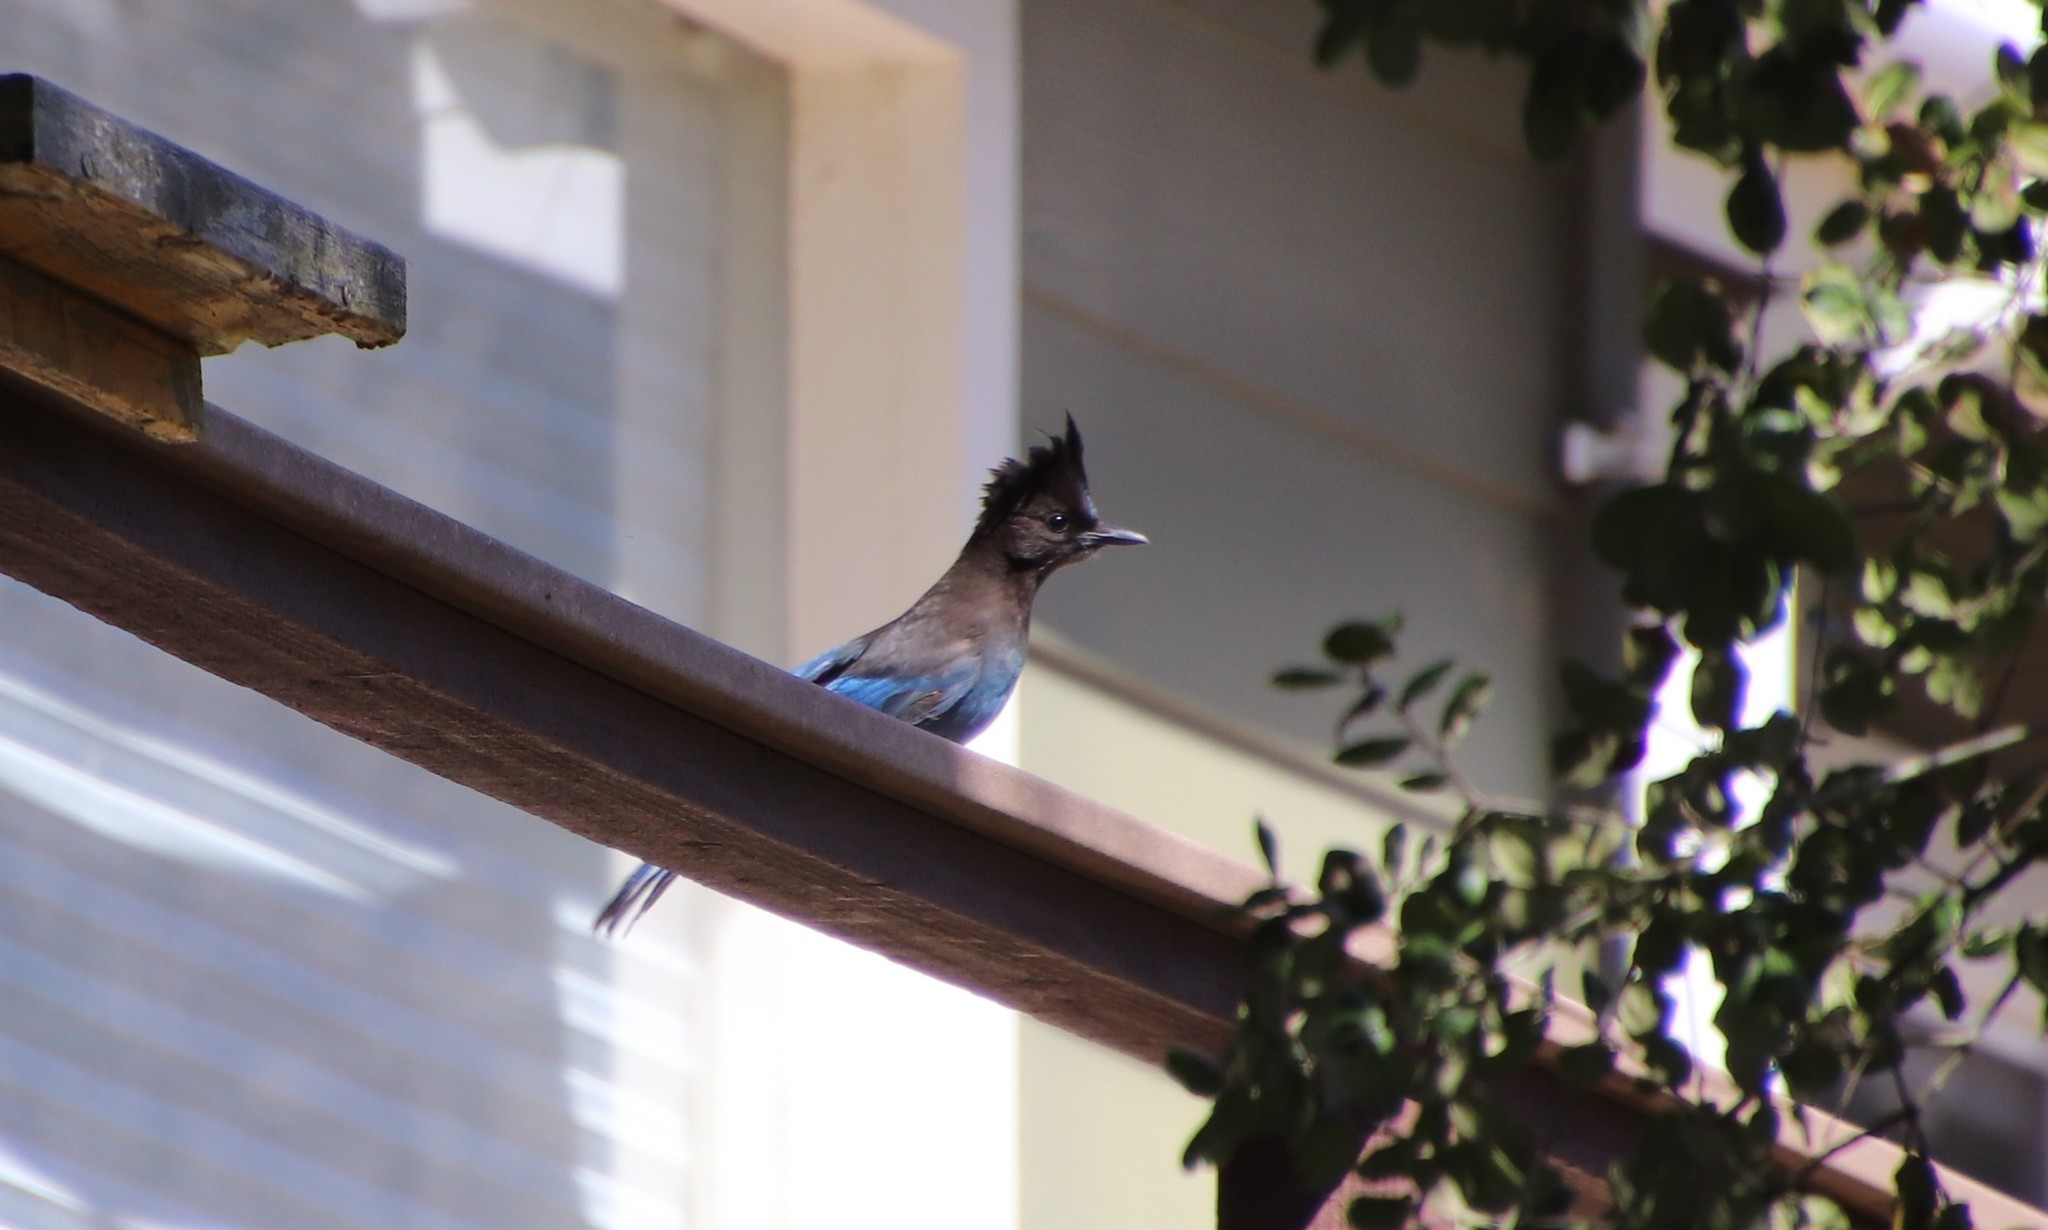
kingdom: Animalia
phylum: Chordata
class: Aves
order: Passeriformes
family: Corvidae
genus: Cyanocitta
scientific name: Cyanocitta stelleri
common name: Steller's jay
